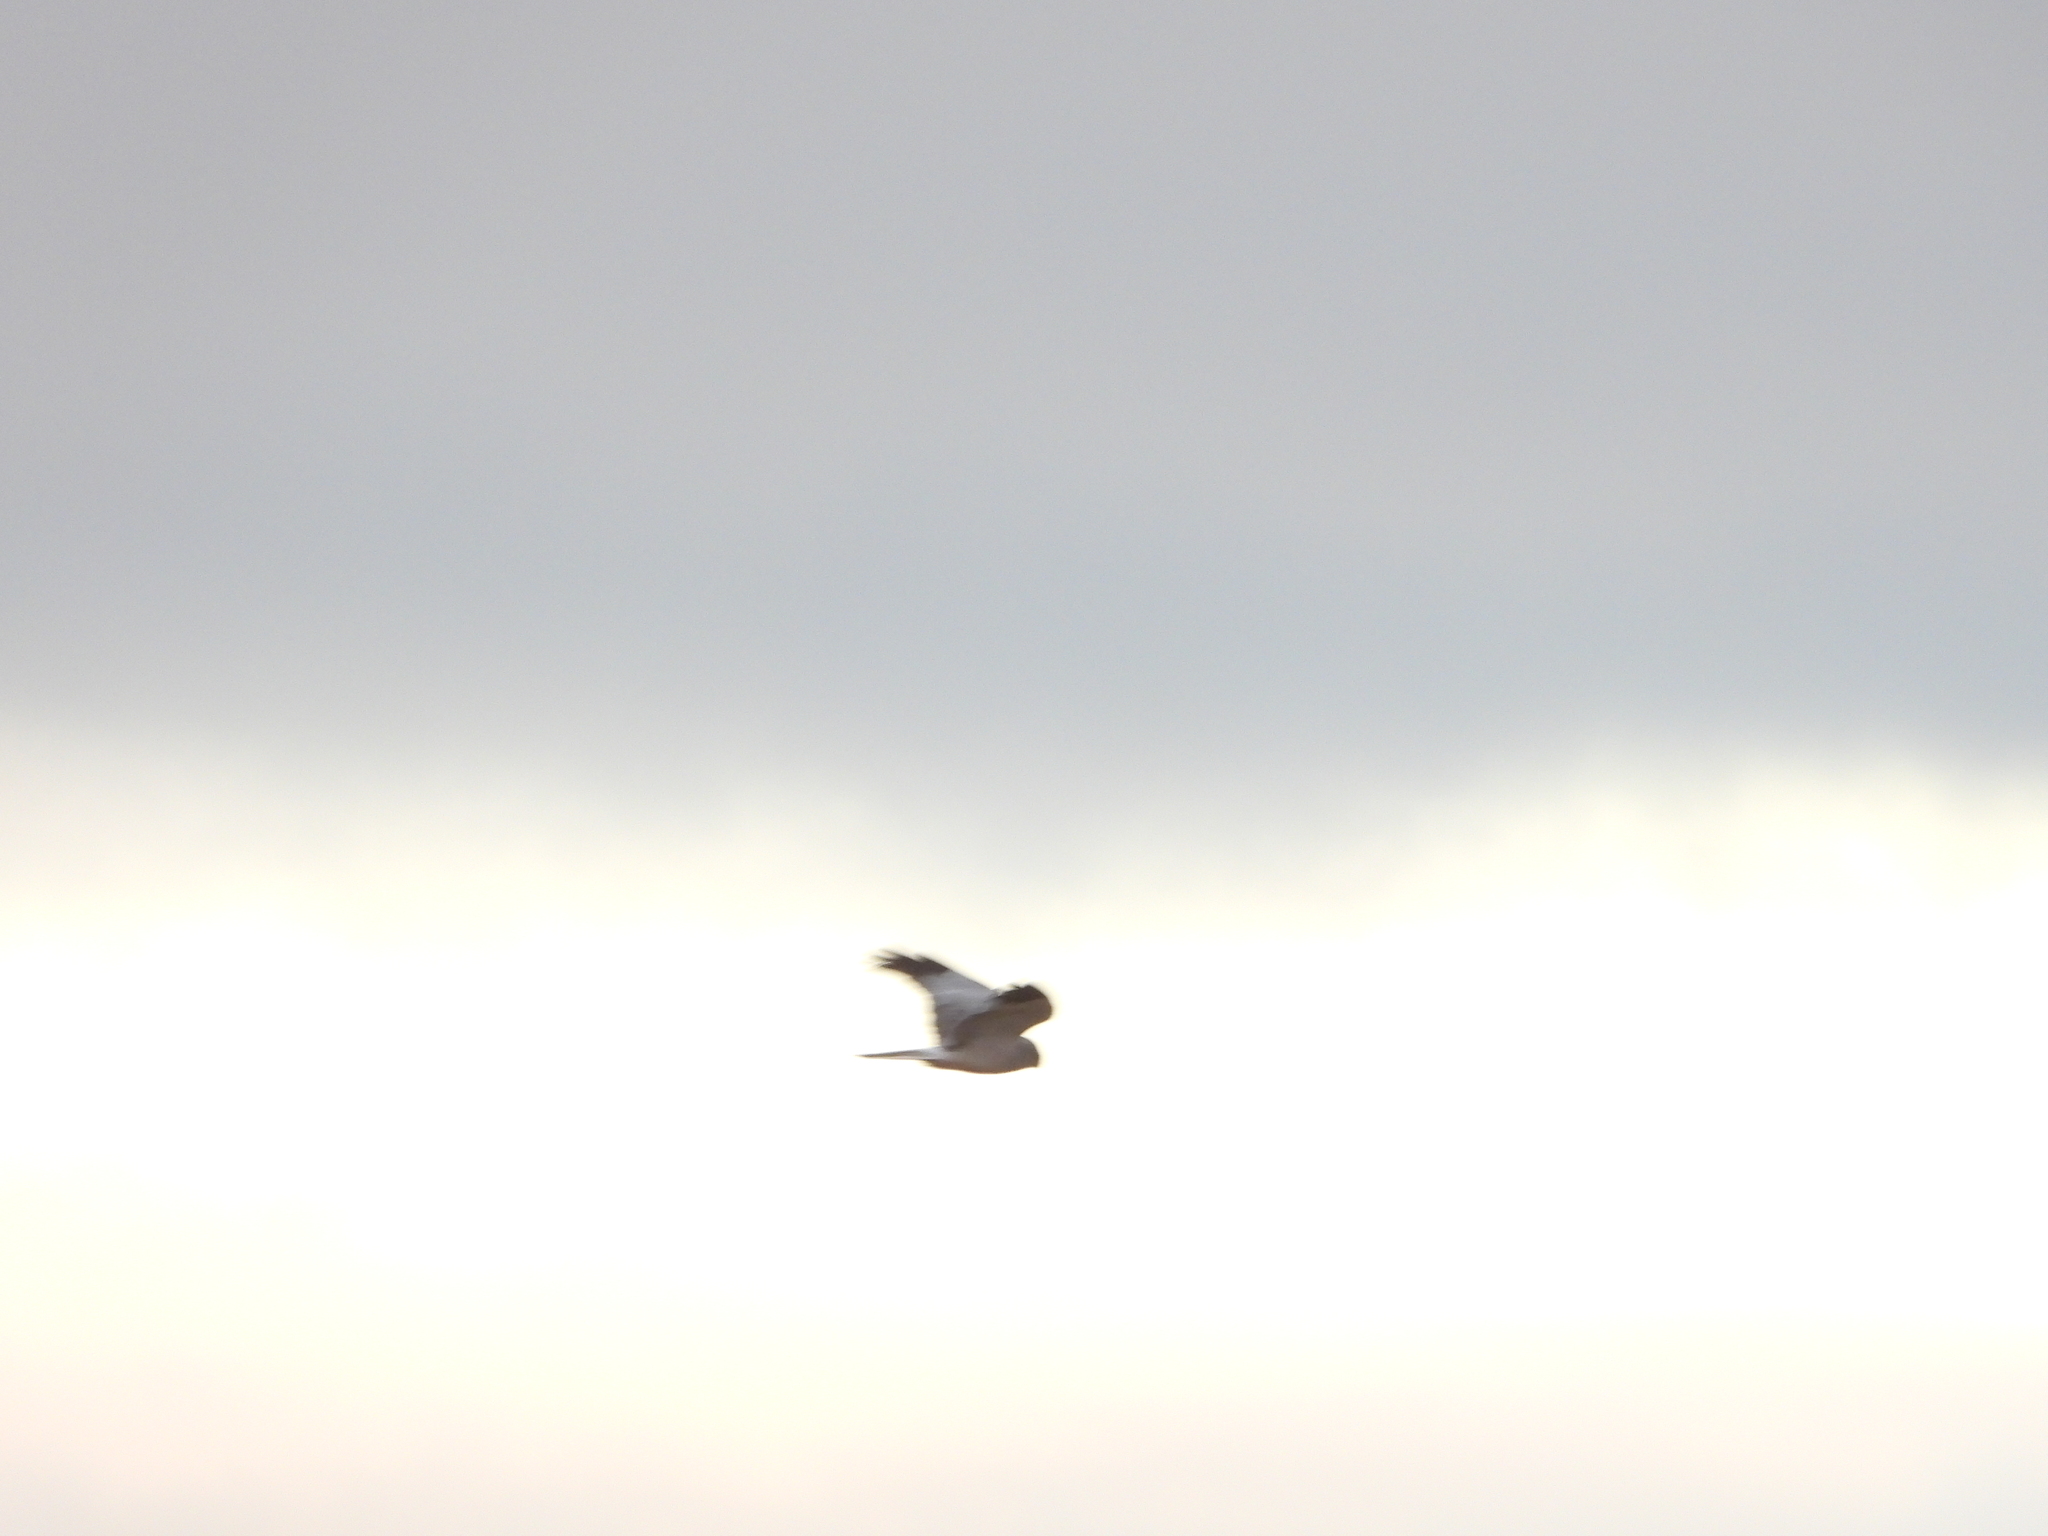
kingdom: Animalia
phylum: Chordata
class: Aves
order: Accipitriformes
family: Accipitridae
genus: Circus
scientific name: Circus cyaneus
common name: Hen harrier
